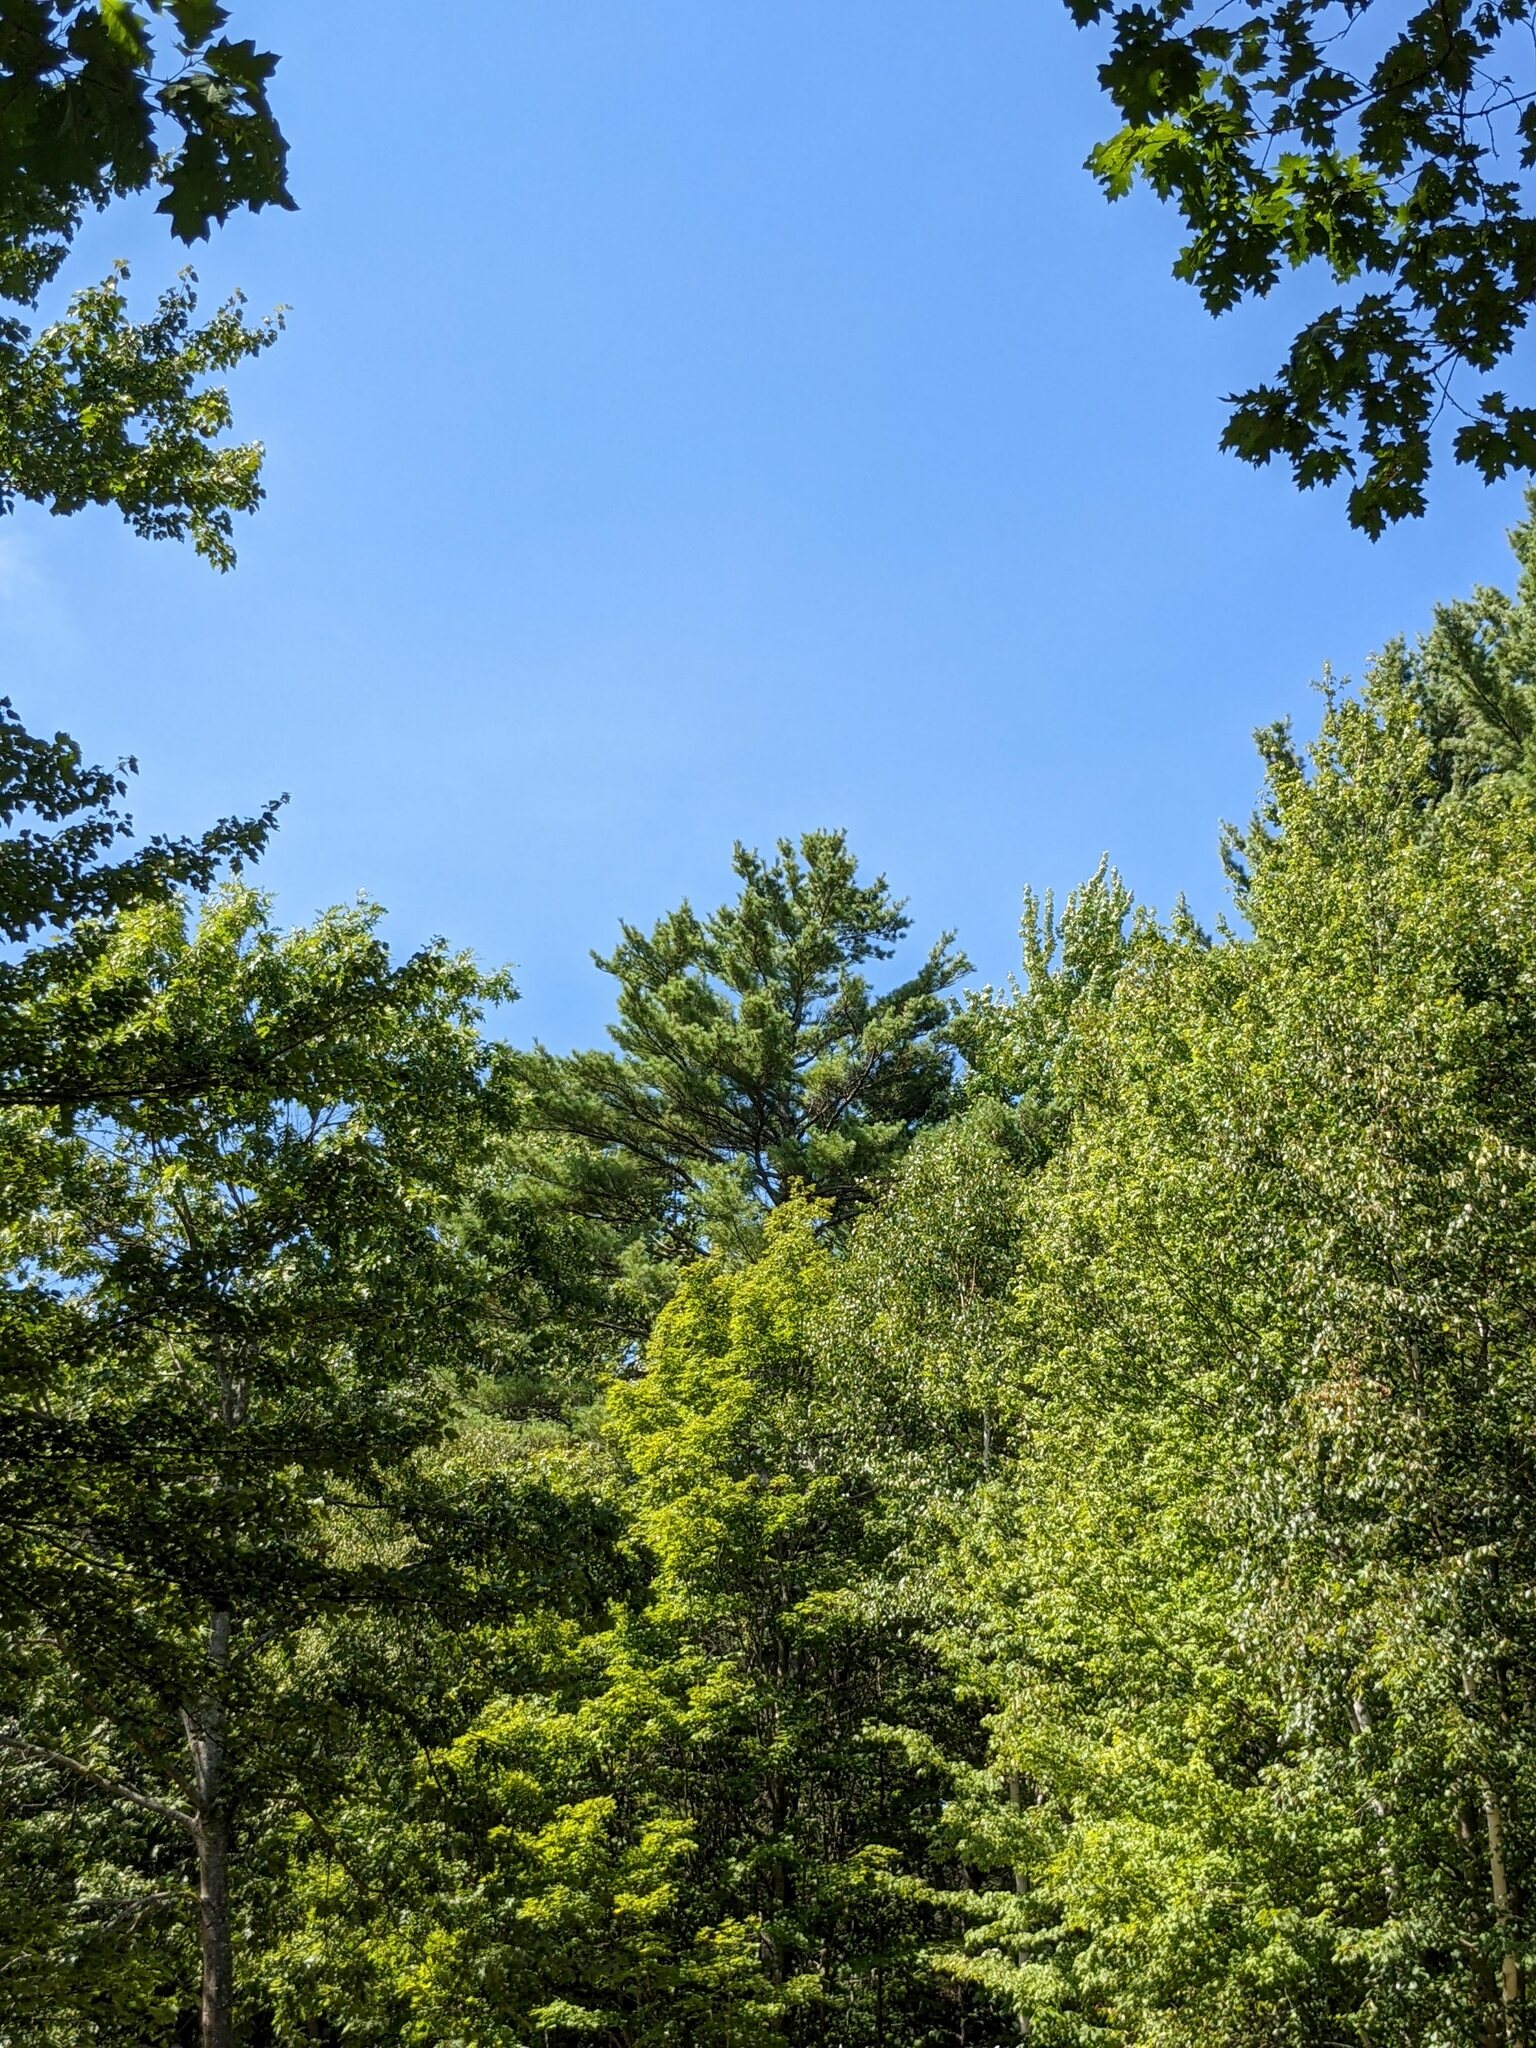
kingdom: Plantae
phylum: Tracheophyta
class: Pinopsida
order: Pinales
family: Pinaceae
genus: Pinus
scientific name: Pinus strobus
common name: Weymouth pine
